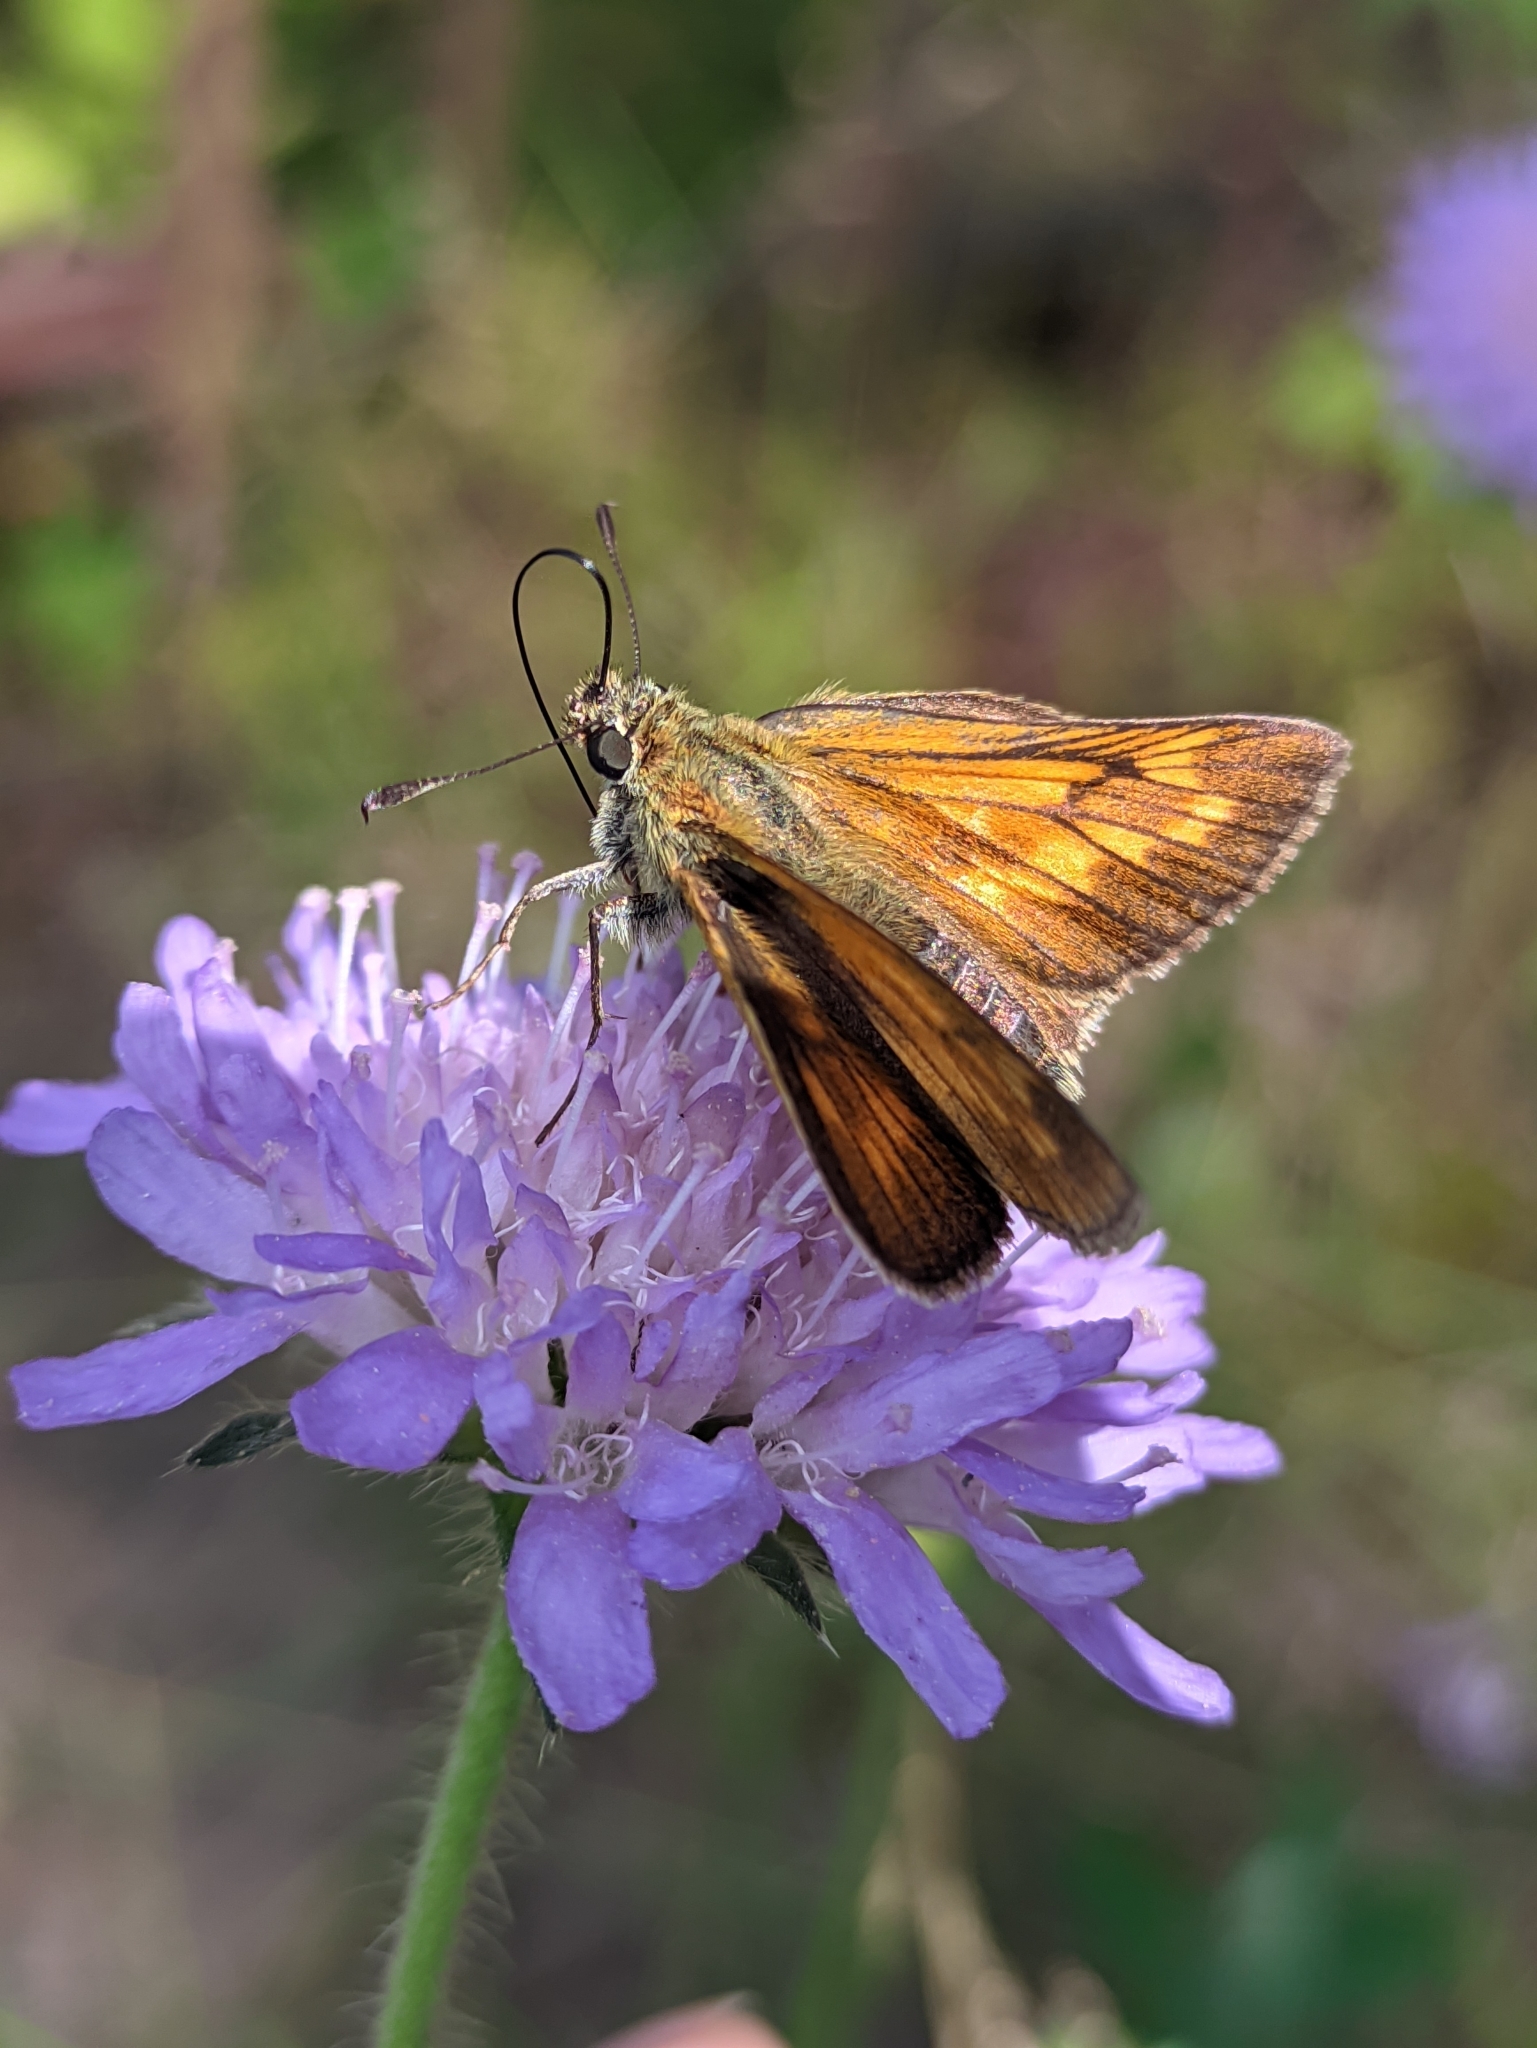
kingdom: Animalia
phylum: Arthropoda
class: Insecta
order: Lepidoptera
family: Hesperiidae
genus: Ochlodes
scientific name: Ochlodes venata
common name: Large skipper
